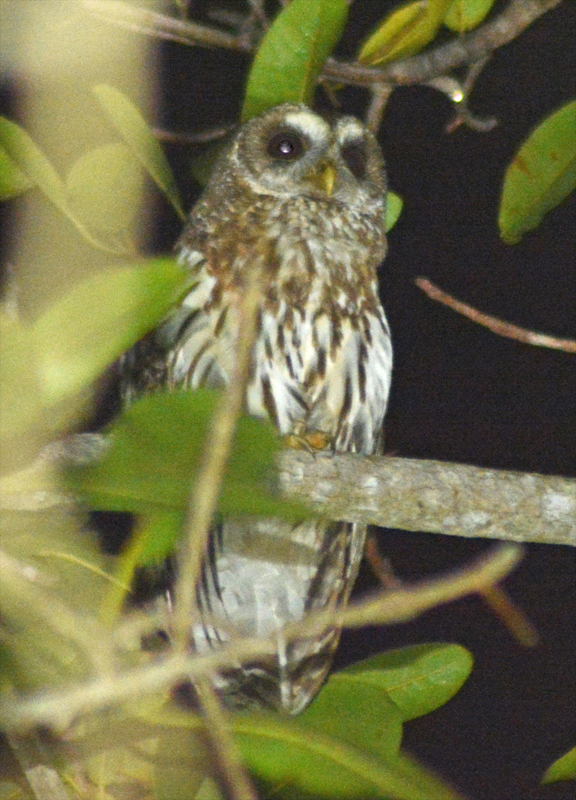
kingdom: Animalia
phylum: Chordata
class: Aves
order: Strigiformes
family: Strigidae
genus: Strix
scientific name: Strix virgata
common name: Mottled owl
